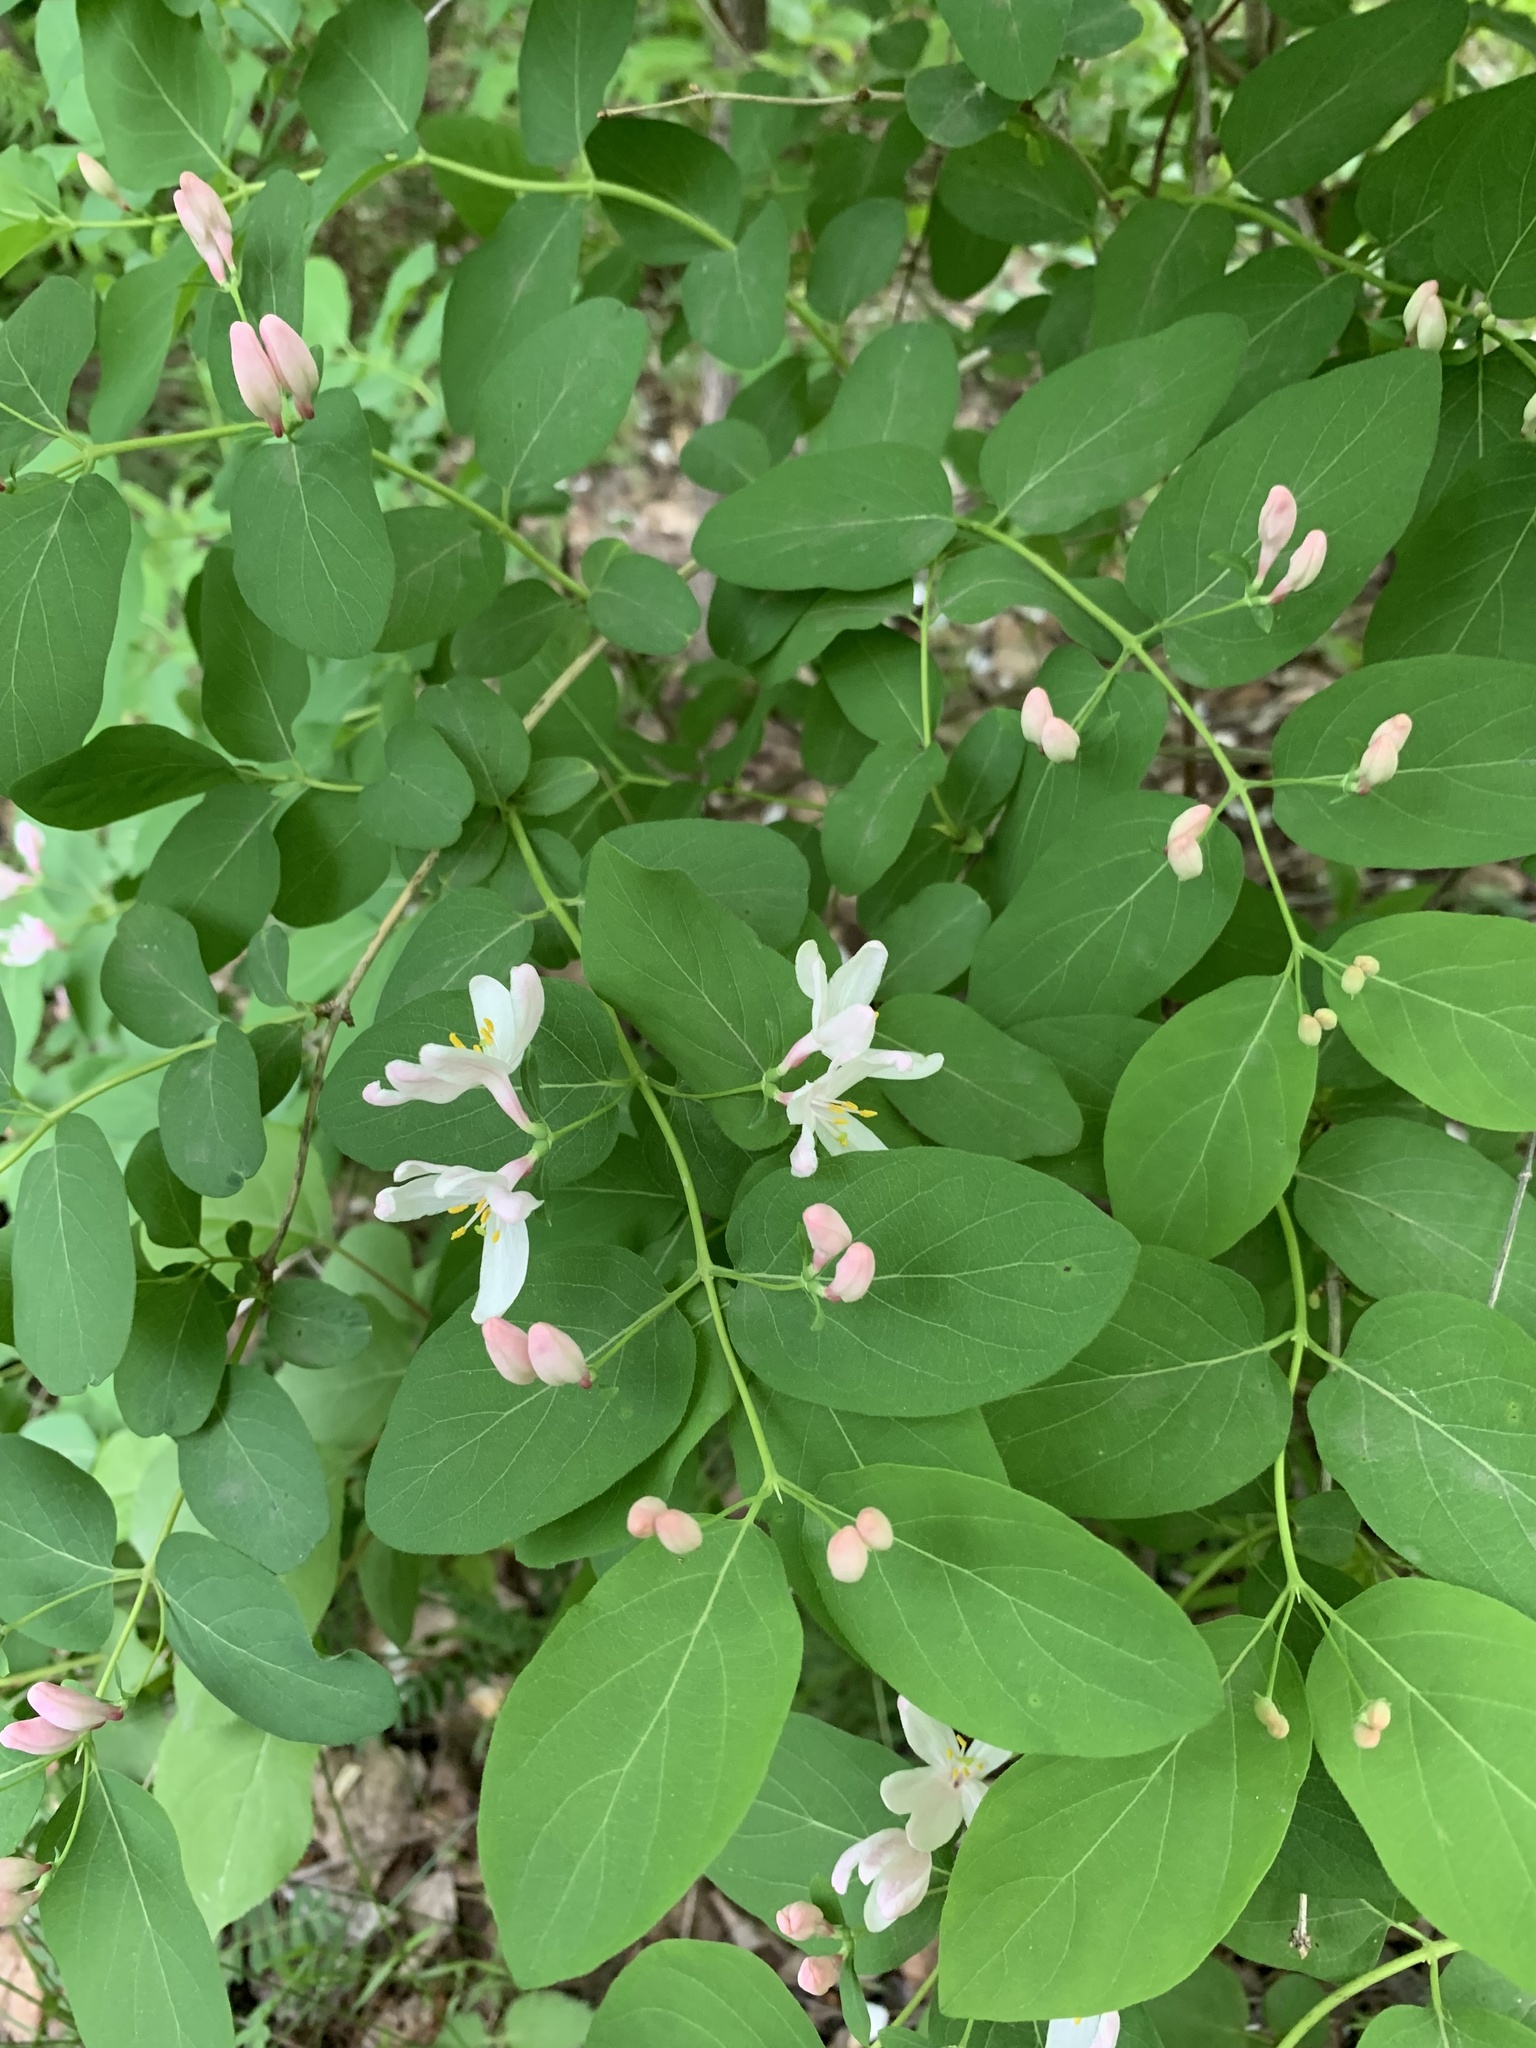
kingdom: Plantae
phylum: Tracheophyta
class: Magnoliopsida
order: Dipsacales
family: Caprifoliaceae
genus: Lonicera
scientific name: Lonicera tatarica
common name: Tatarian honeysuckle
